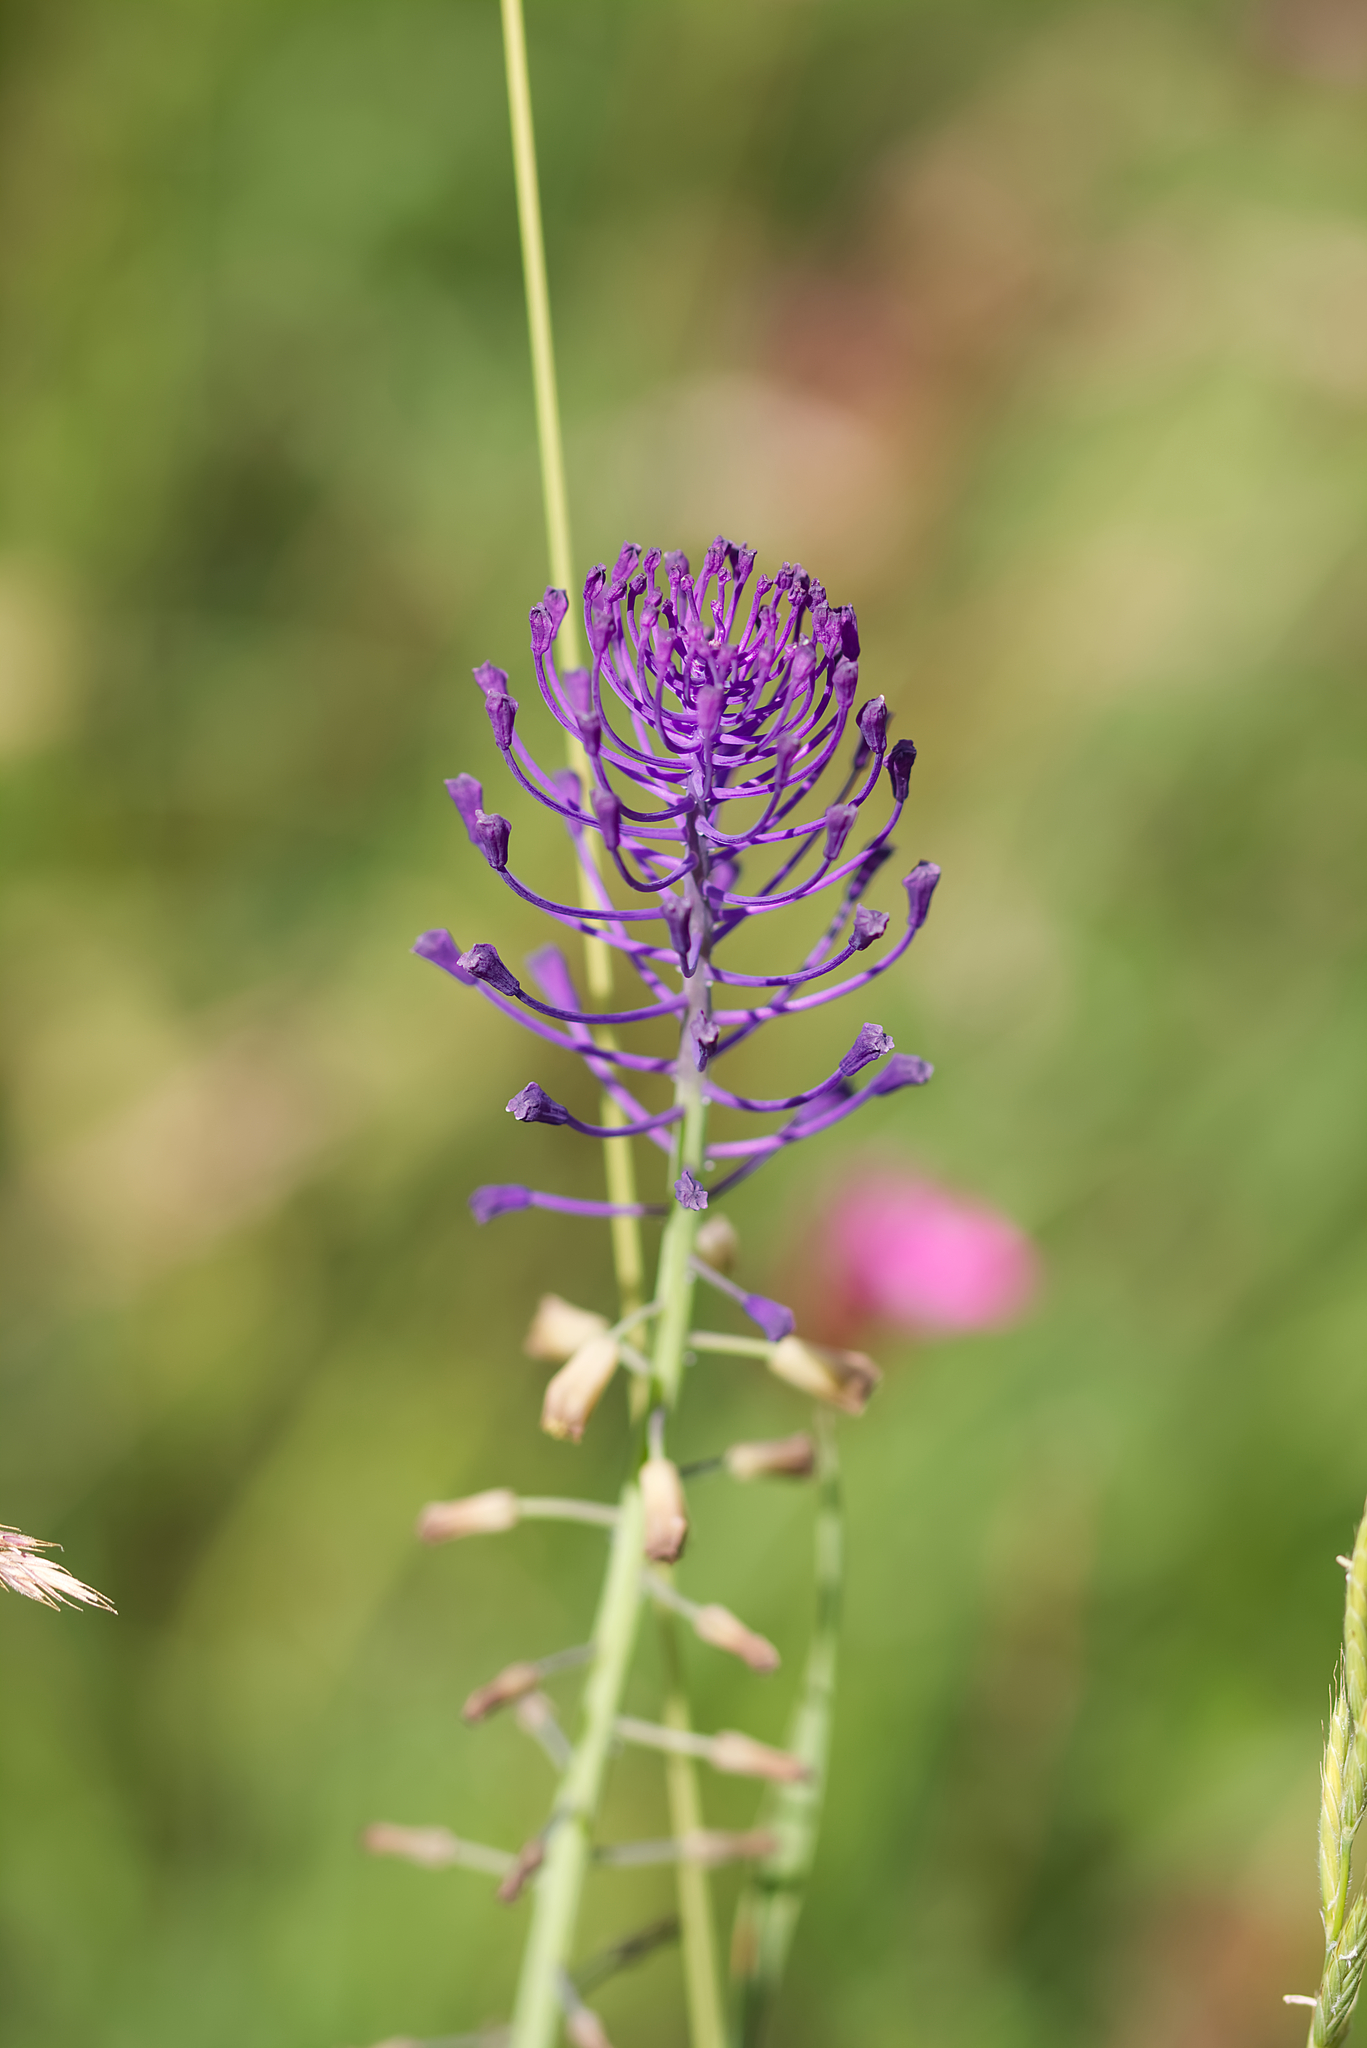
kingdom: Plantae
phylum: Tracheophyta
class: Liliopsida
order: Asparagales
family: Asparagaceae
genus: Muscari
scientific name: Muscari comosum
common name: Tassel hyacinth
